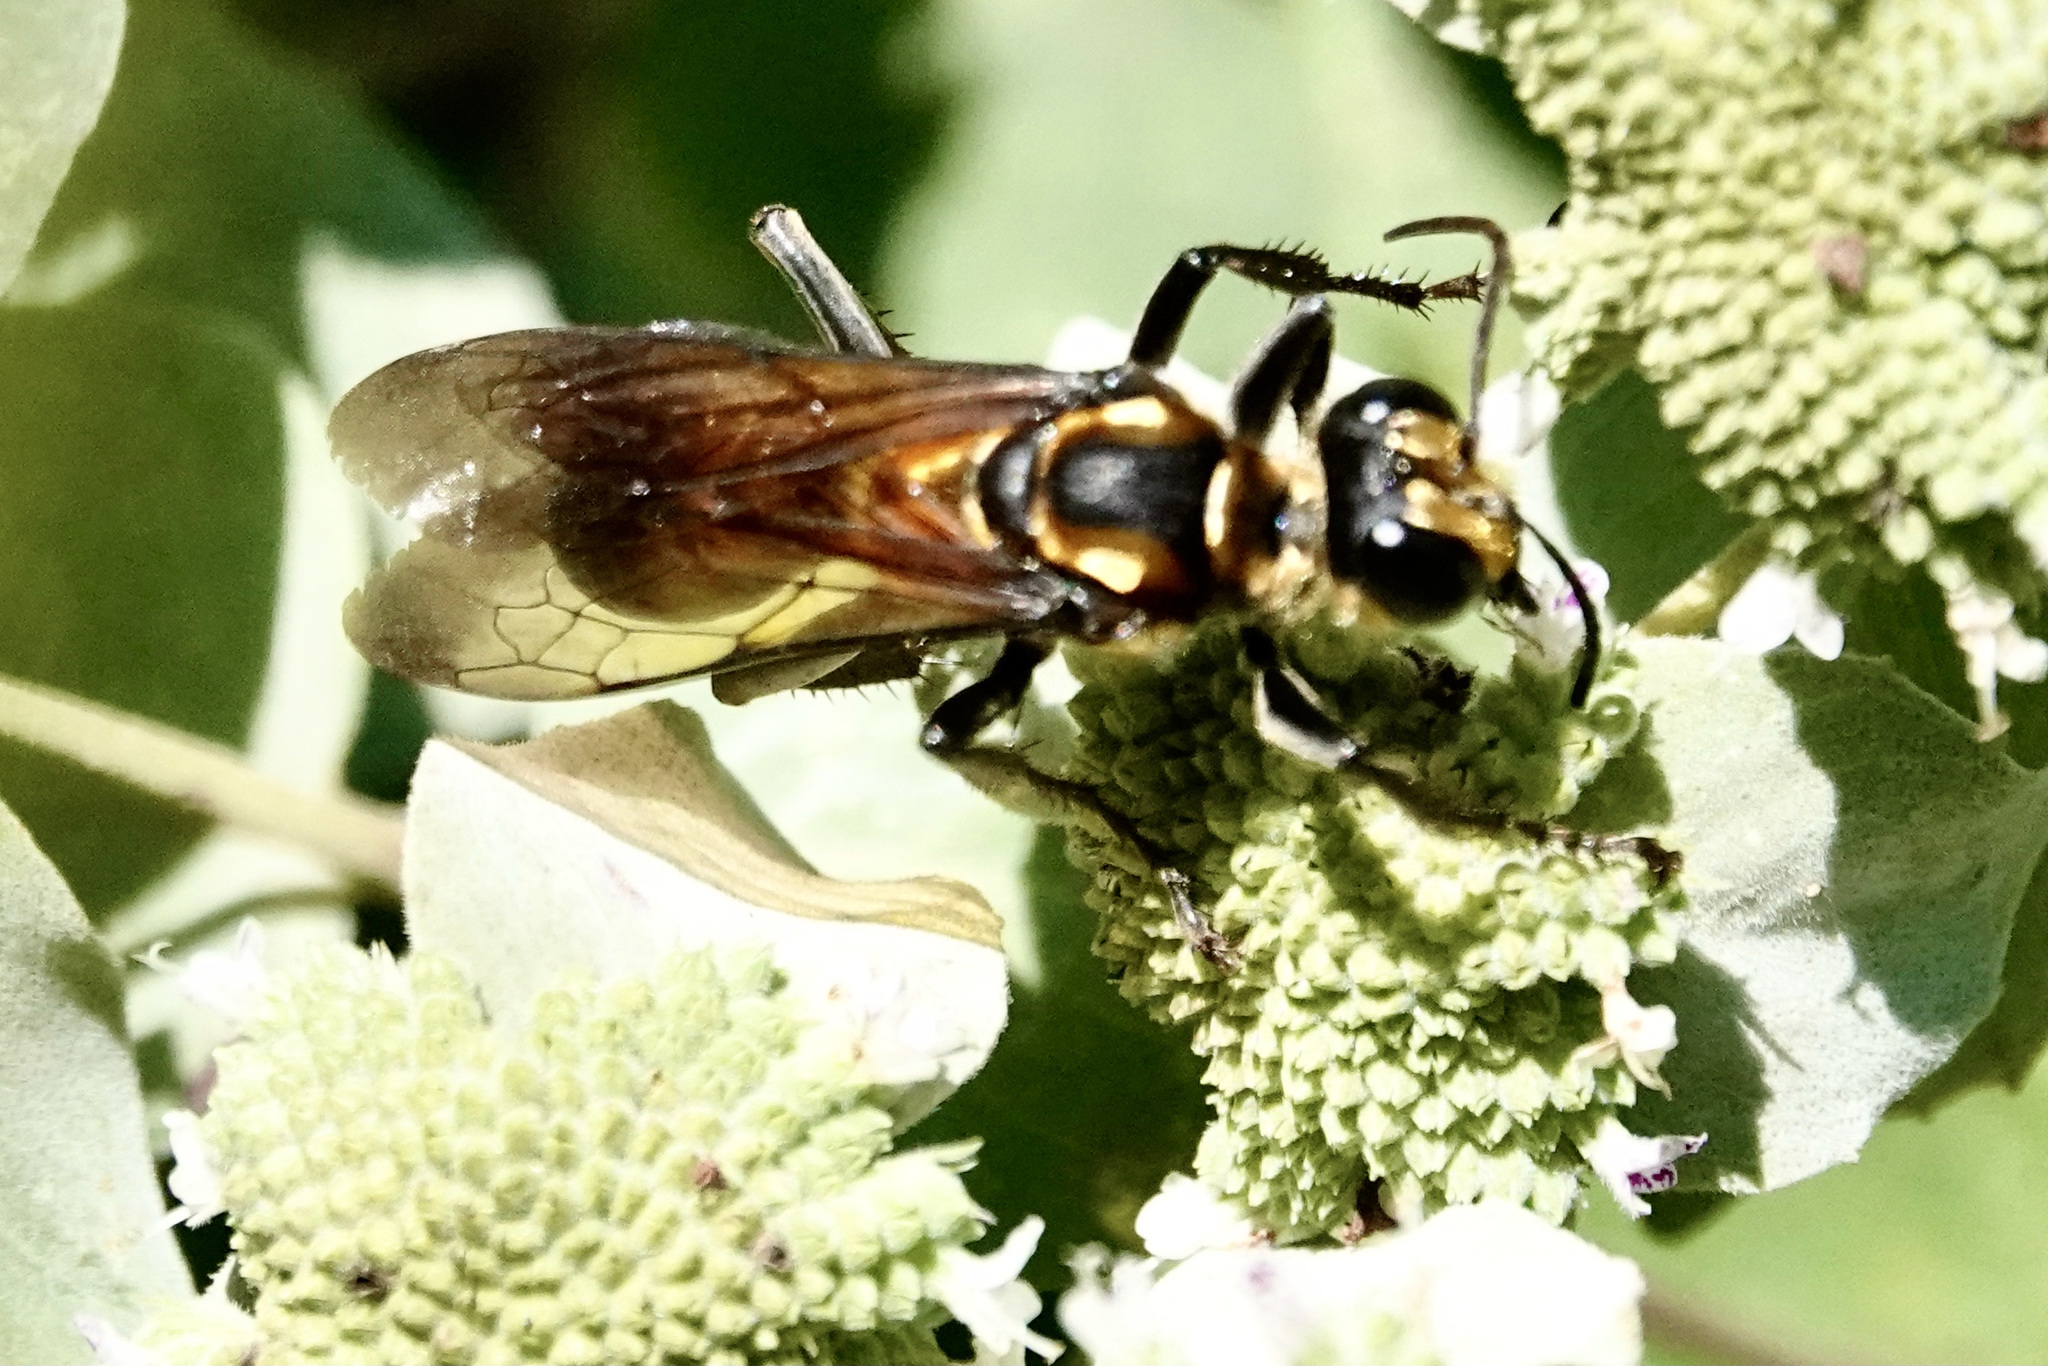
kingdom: Animalia
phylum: Arthropoda
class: Insecta
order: Hymenoptera
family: Sphecidae
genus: Sphex
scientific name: Sphex habenus
